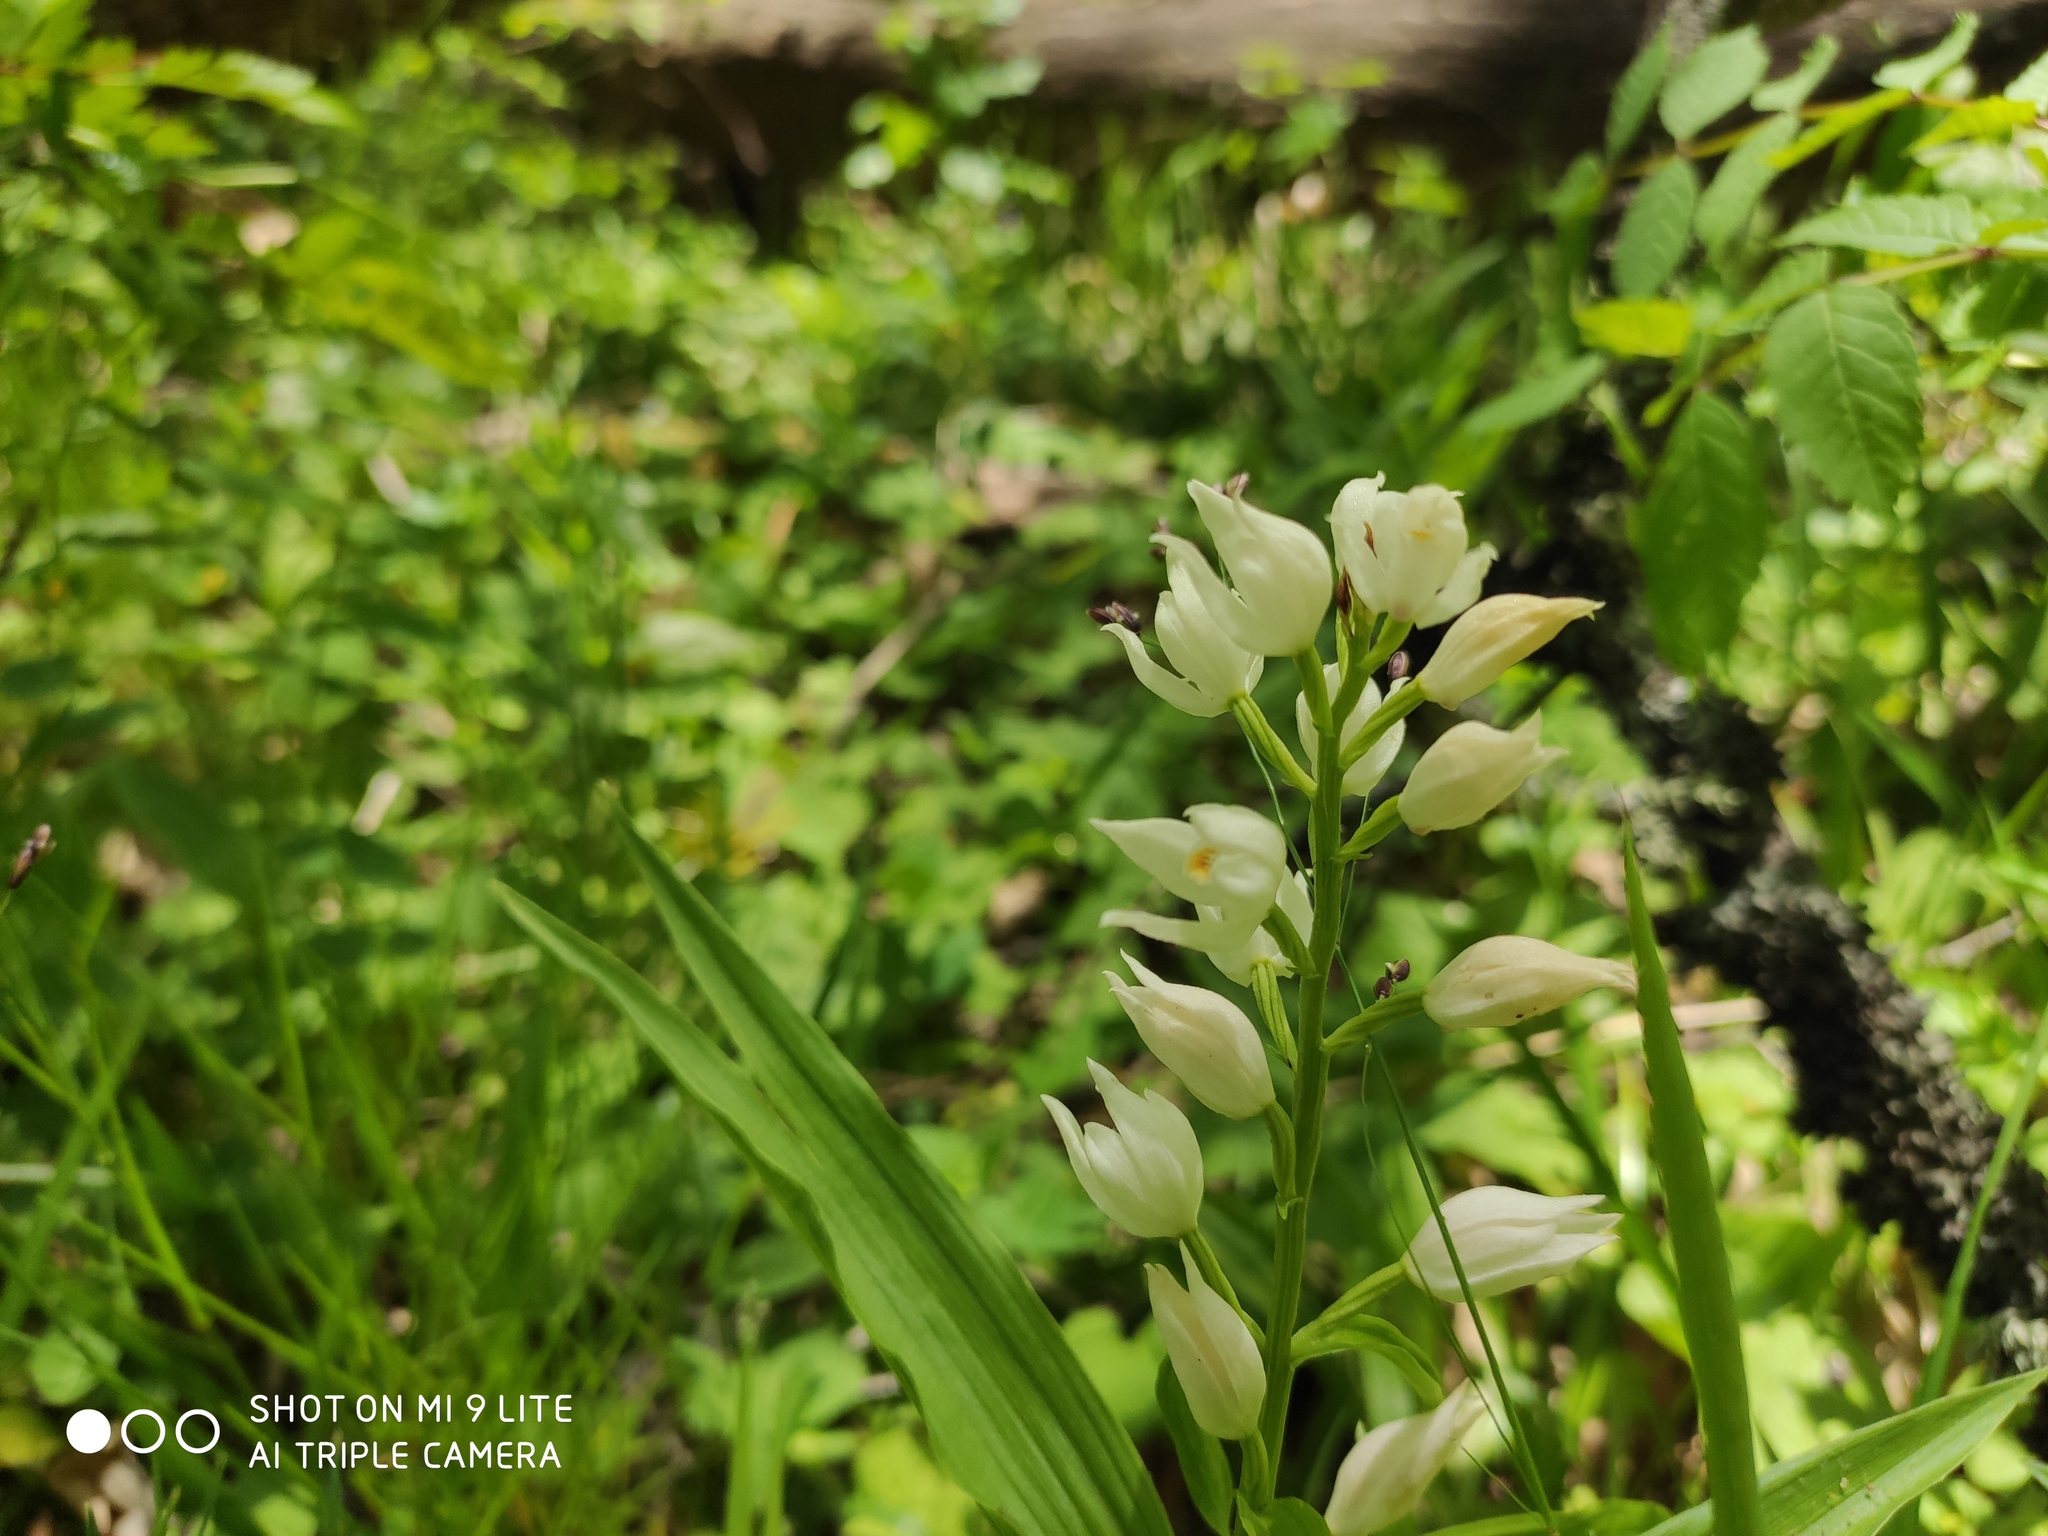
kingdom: Plantae
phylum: Tracheophyta
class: Liliopsida
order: Asparagales
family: Orchidaceae
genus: Cephalanthera
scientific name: Cephalanthera longifolia
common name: Narrow-leaved helleborine
